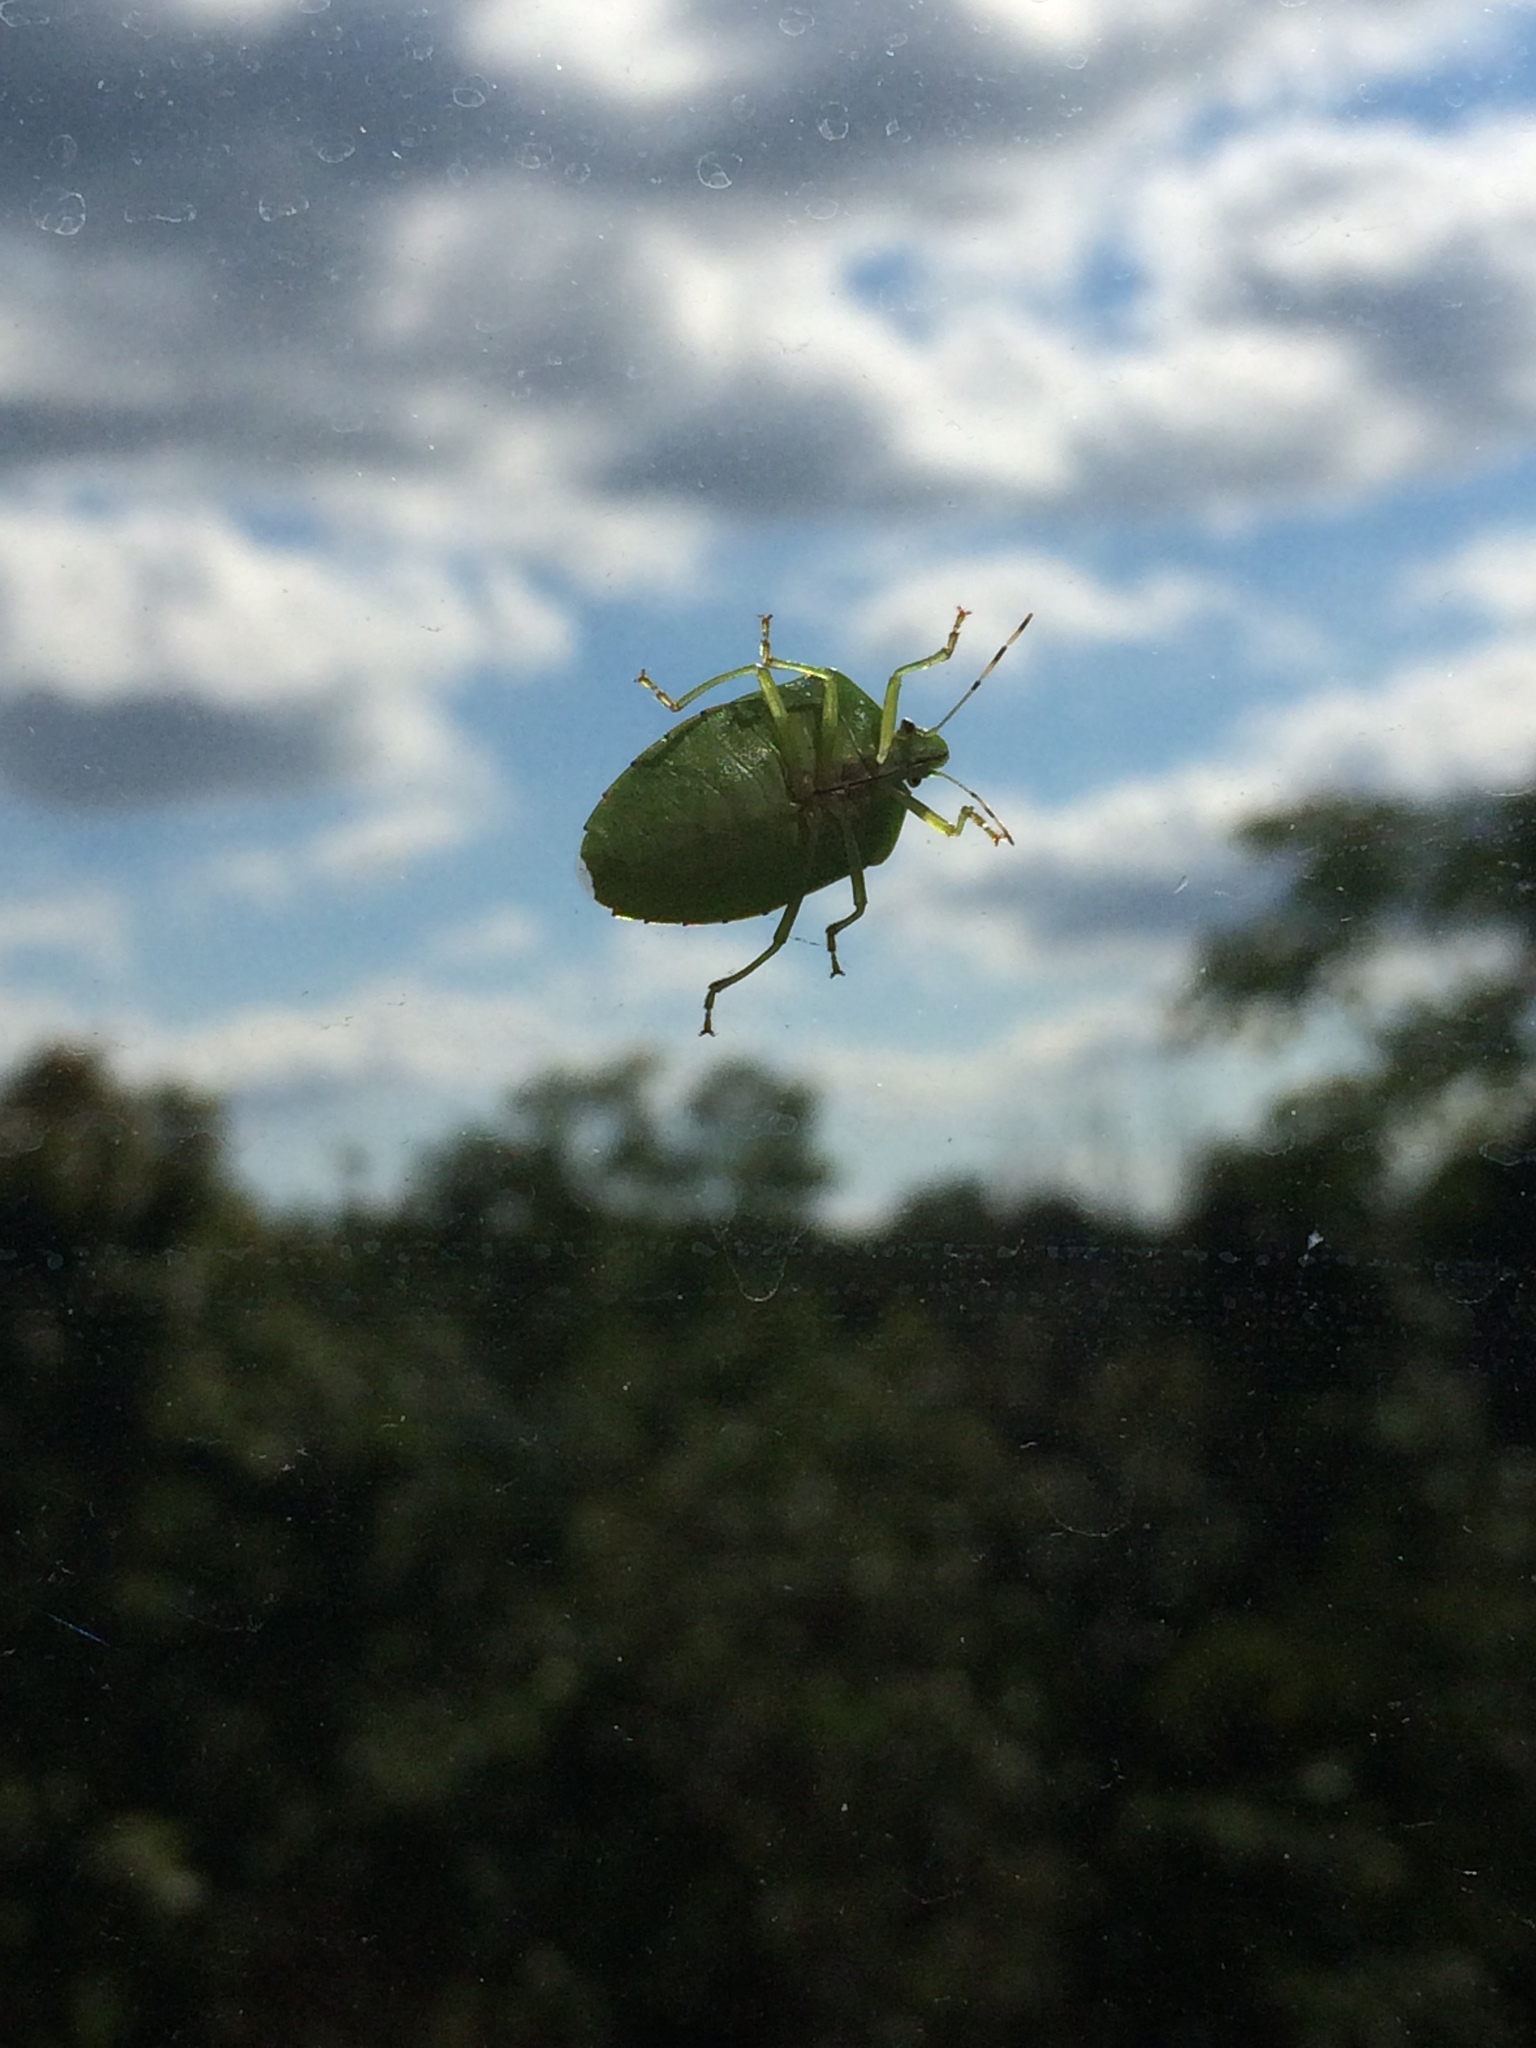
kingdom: Animalia
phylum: Arthropoda
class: Insecta
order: Hemiptera
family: Pentatomidae
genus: Chinavia
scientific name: Chinavia hilaris
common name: Green stink bug
